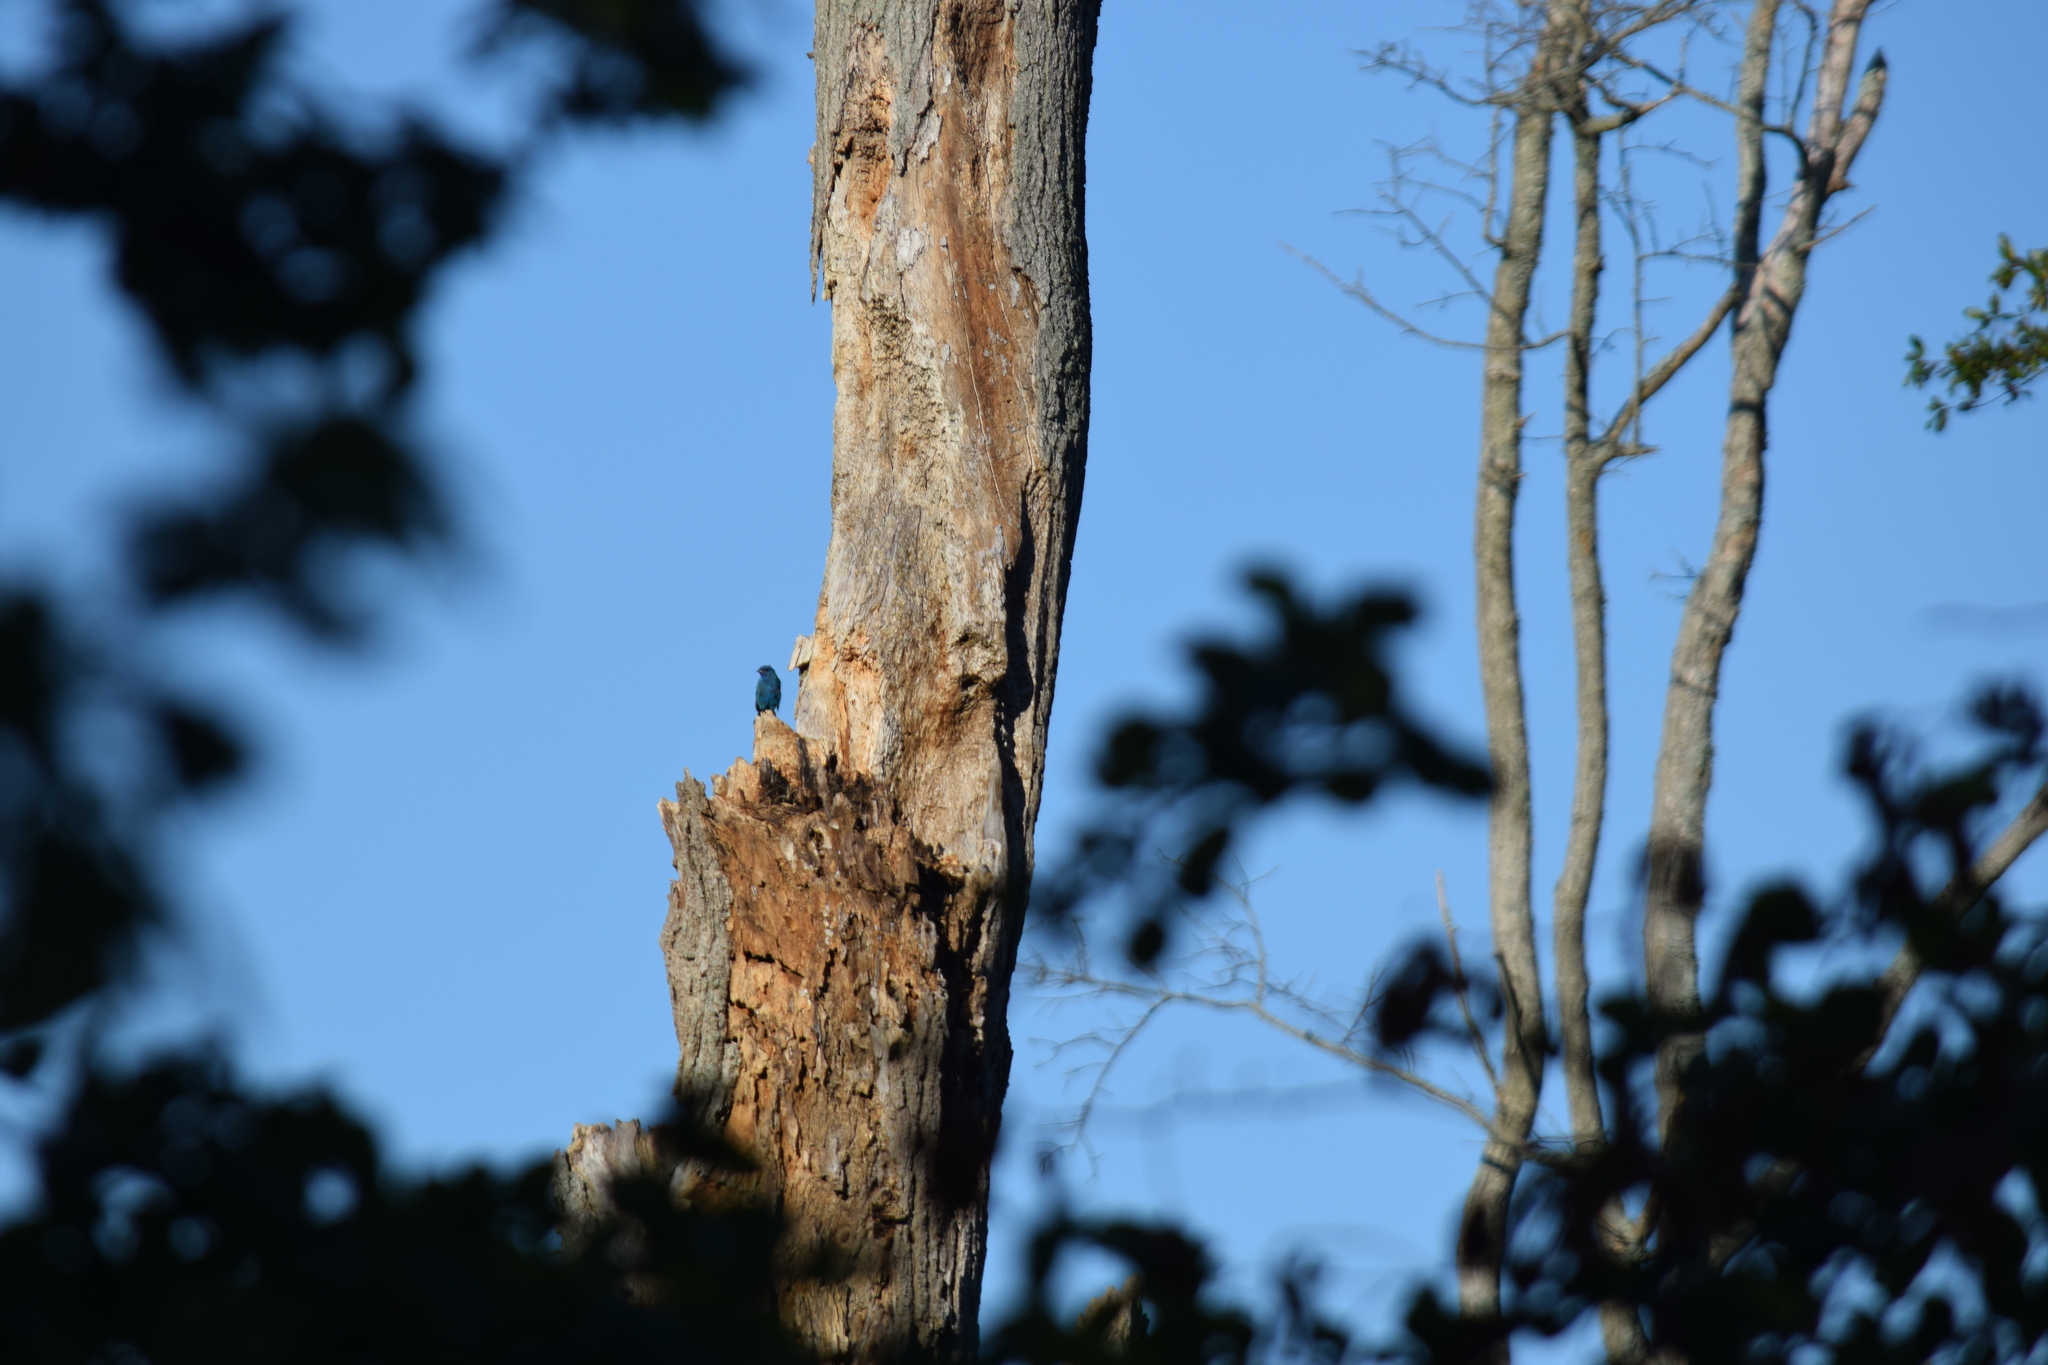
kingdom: Animalia
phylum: Chordata
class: Aves
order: Passeriformes
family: Cardinalidae
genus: Passerina
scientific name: Passerina cyanea
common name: Indigo bunting
